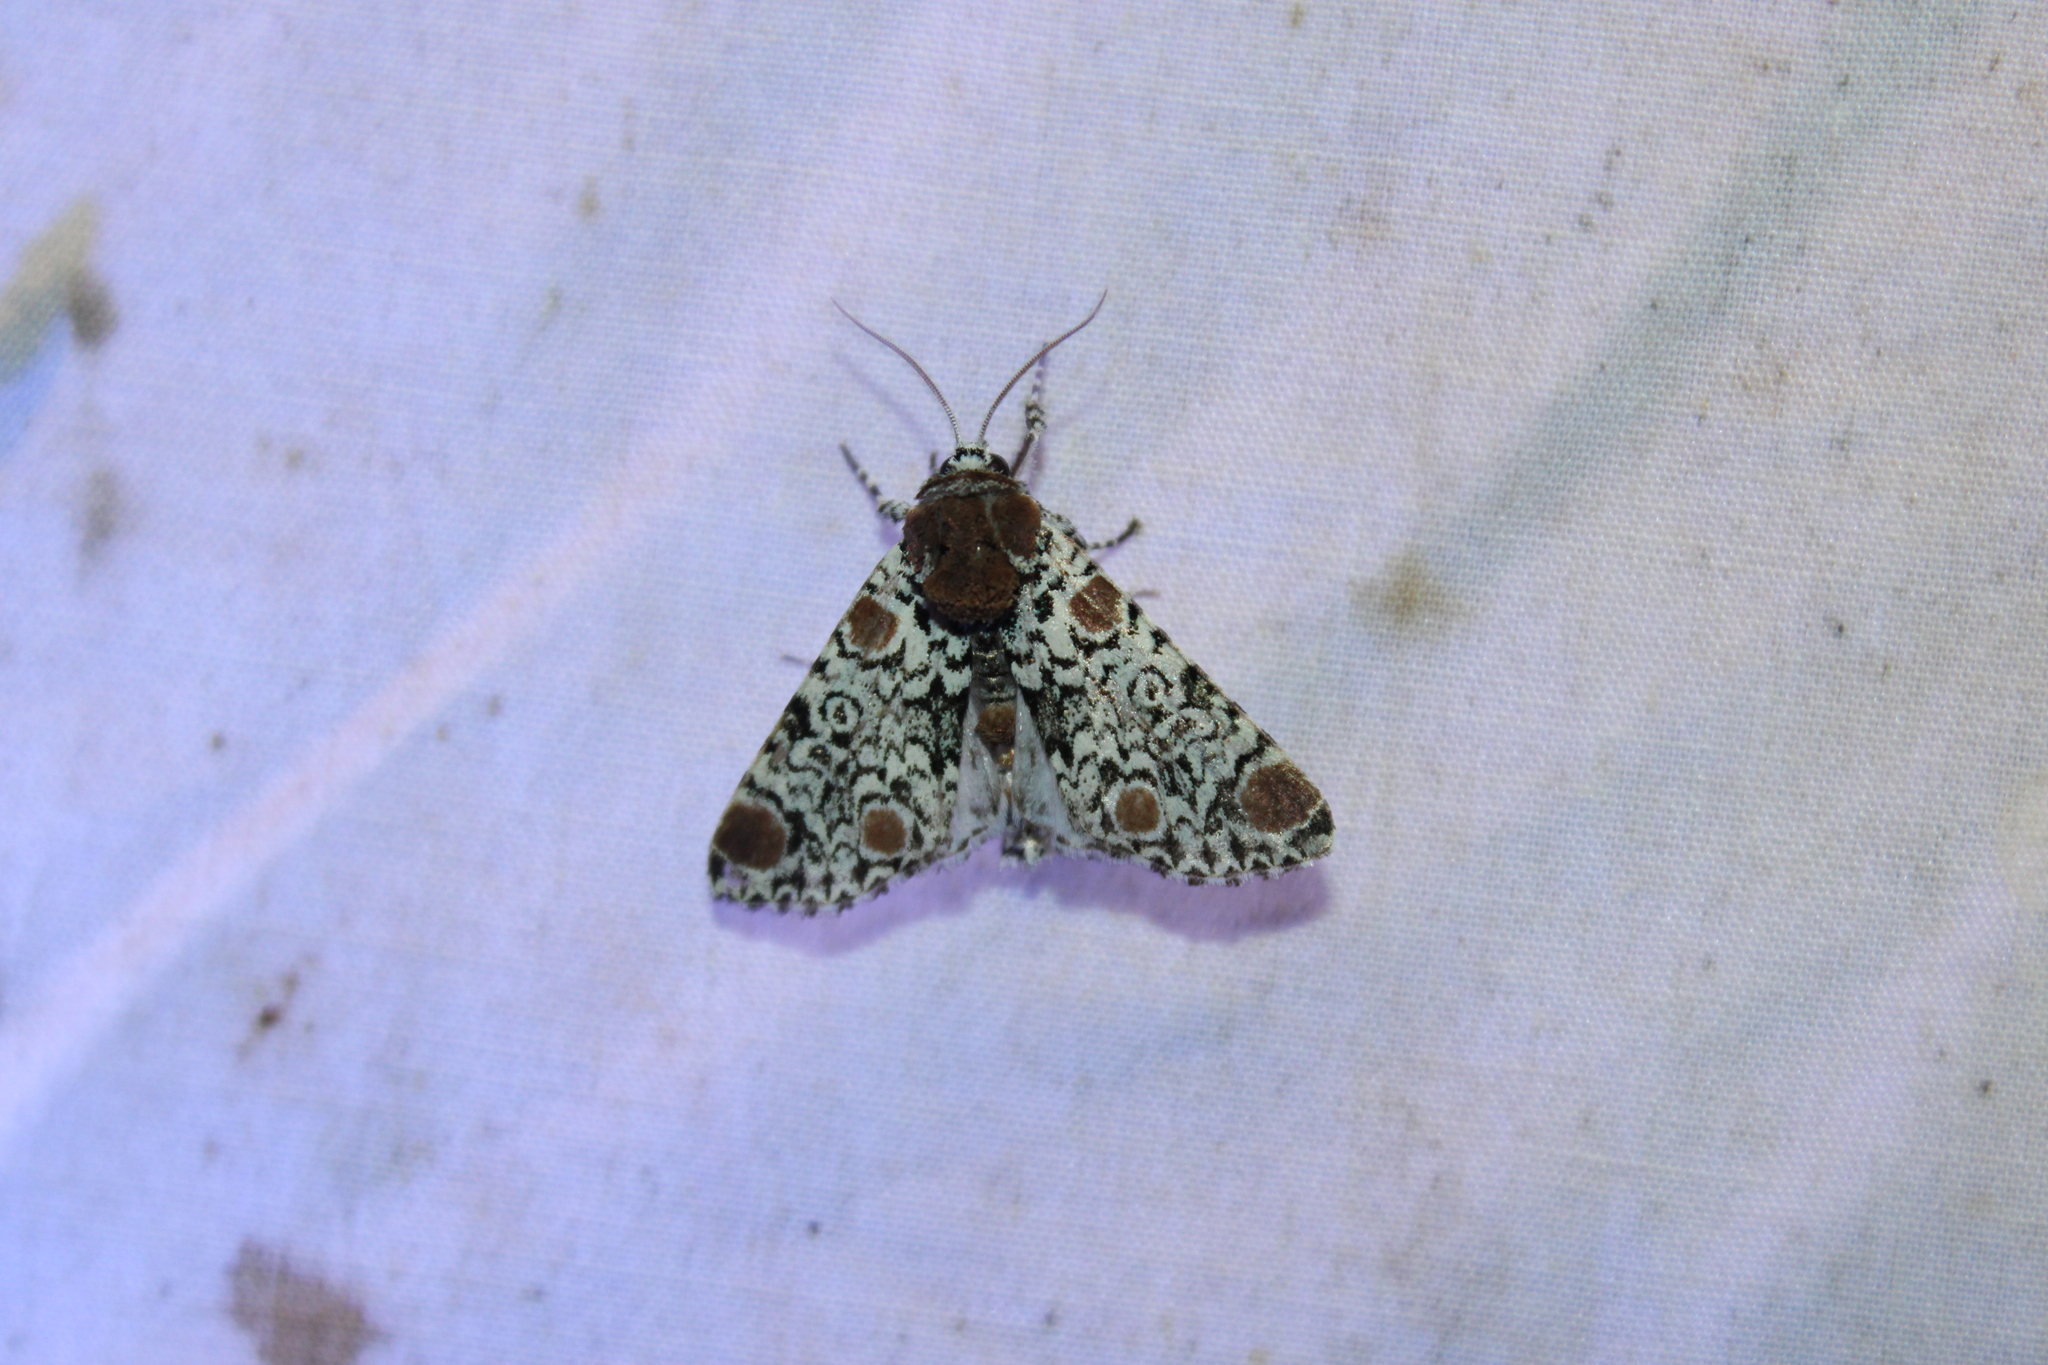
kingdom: Animalia
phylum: Arthropoda
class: Insecta
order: Lepidoptera
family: Noctuidae
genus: Harrisimemna
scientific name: Harrisimemna trisignata
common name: Harris threespot
